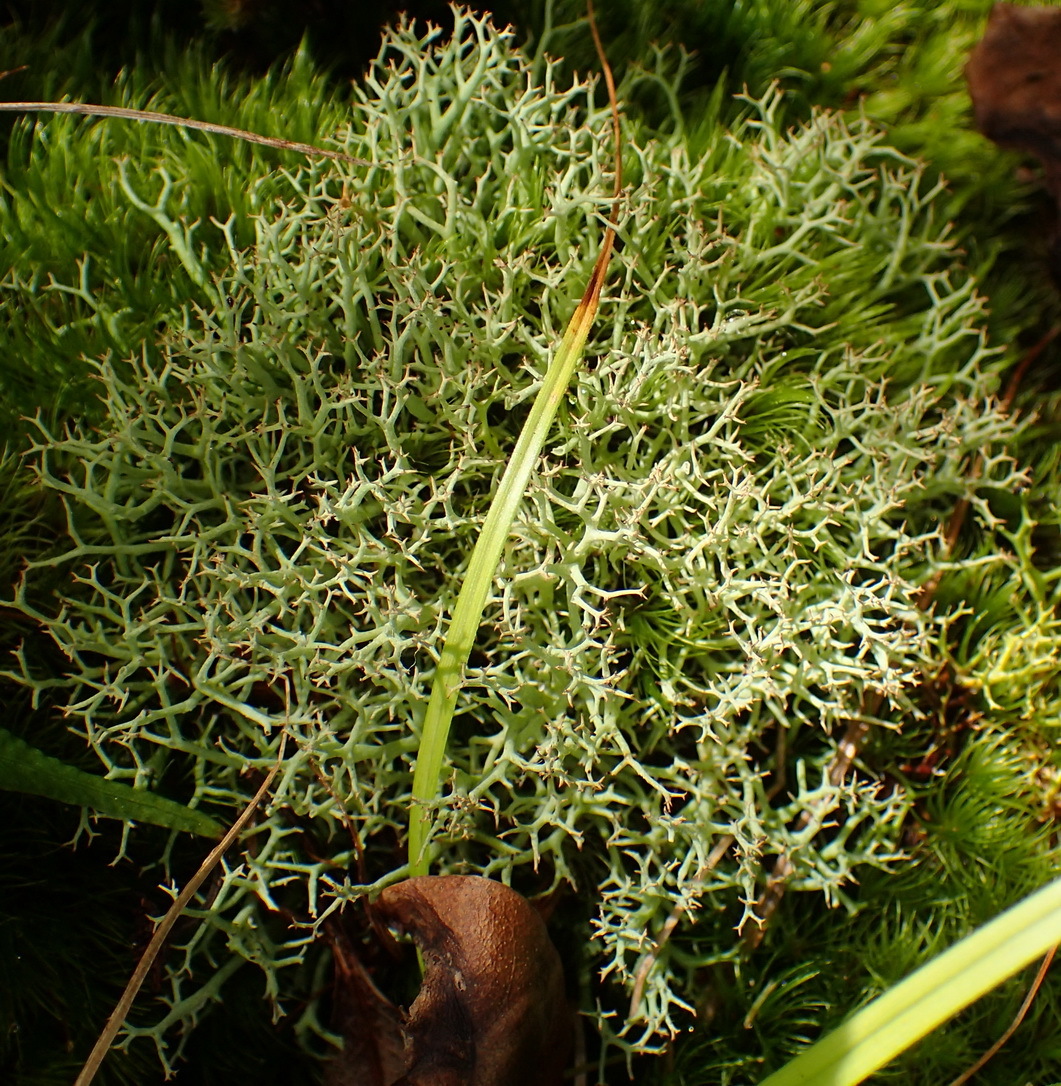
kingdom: Fungi
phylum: Ascomycota
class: Lecanoromycetes
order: Lecanorales
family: Cladoniaceae
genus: Cladonia
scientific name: Cladonia
